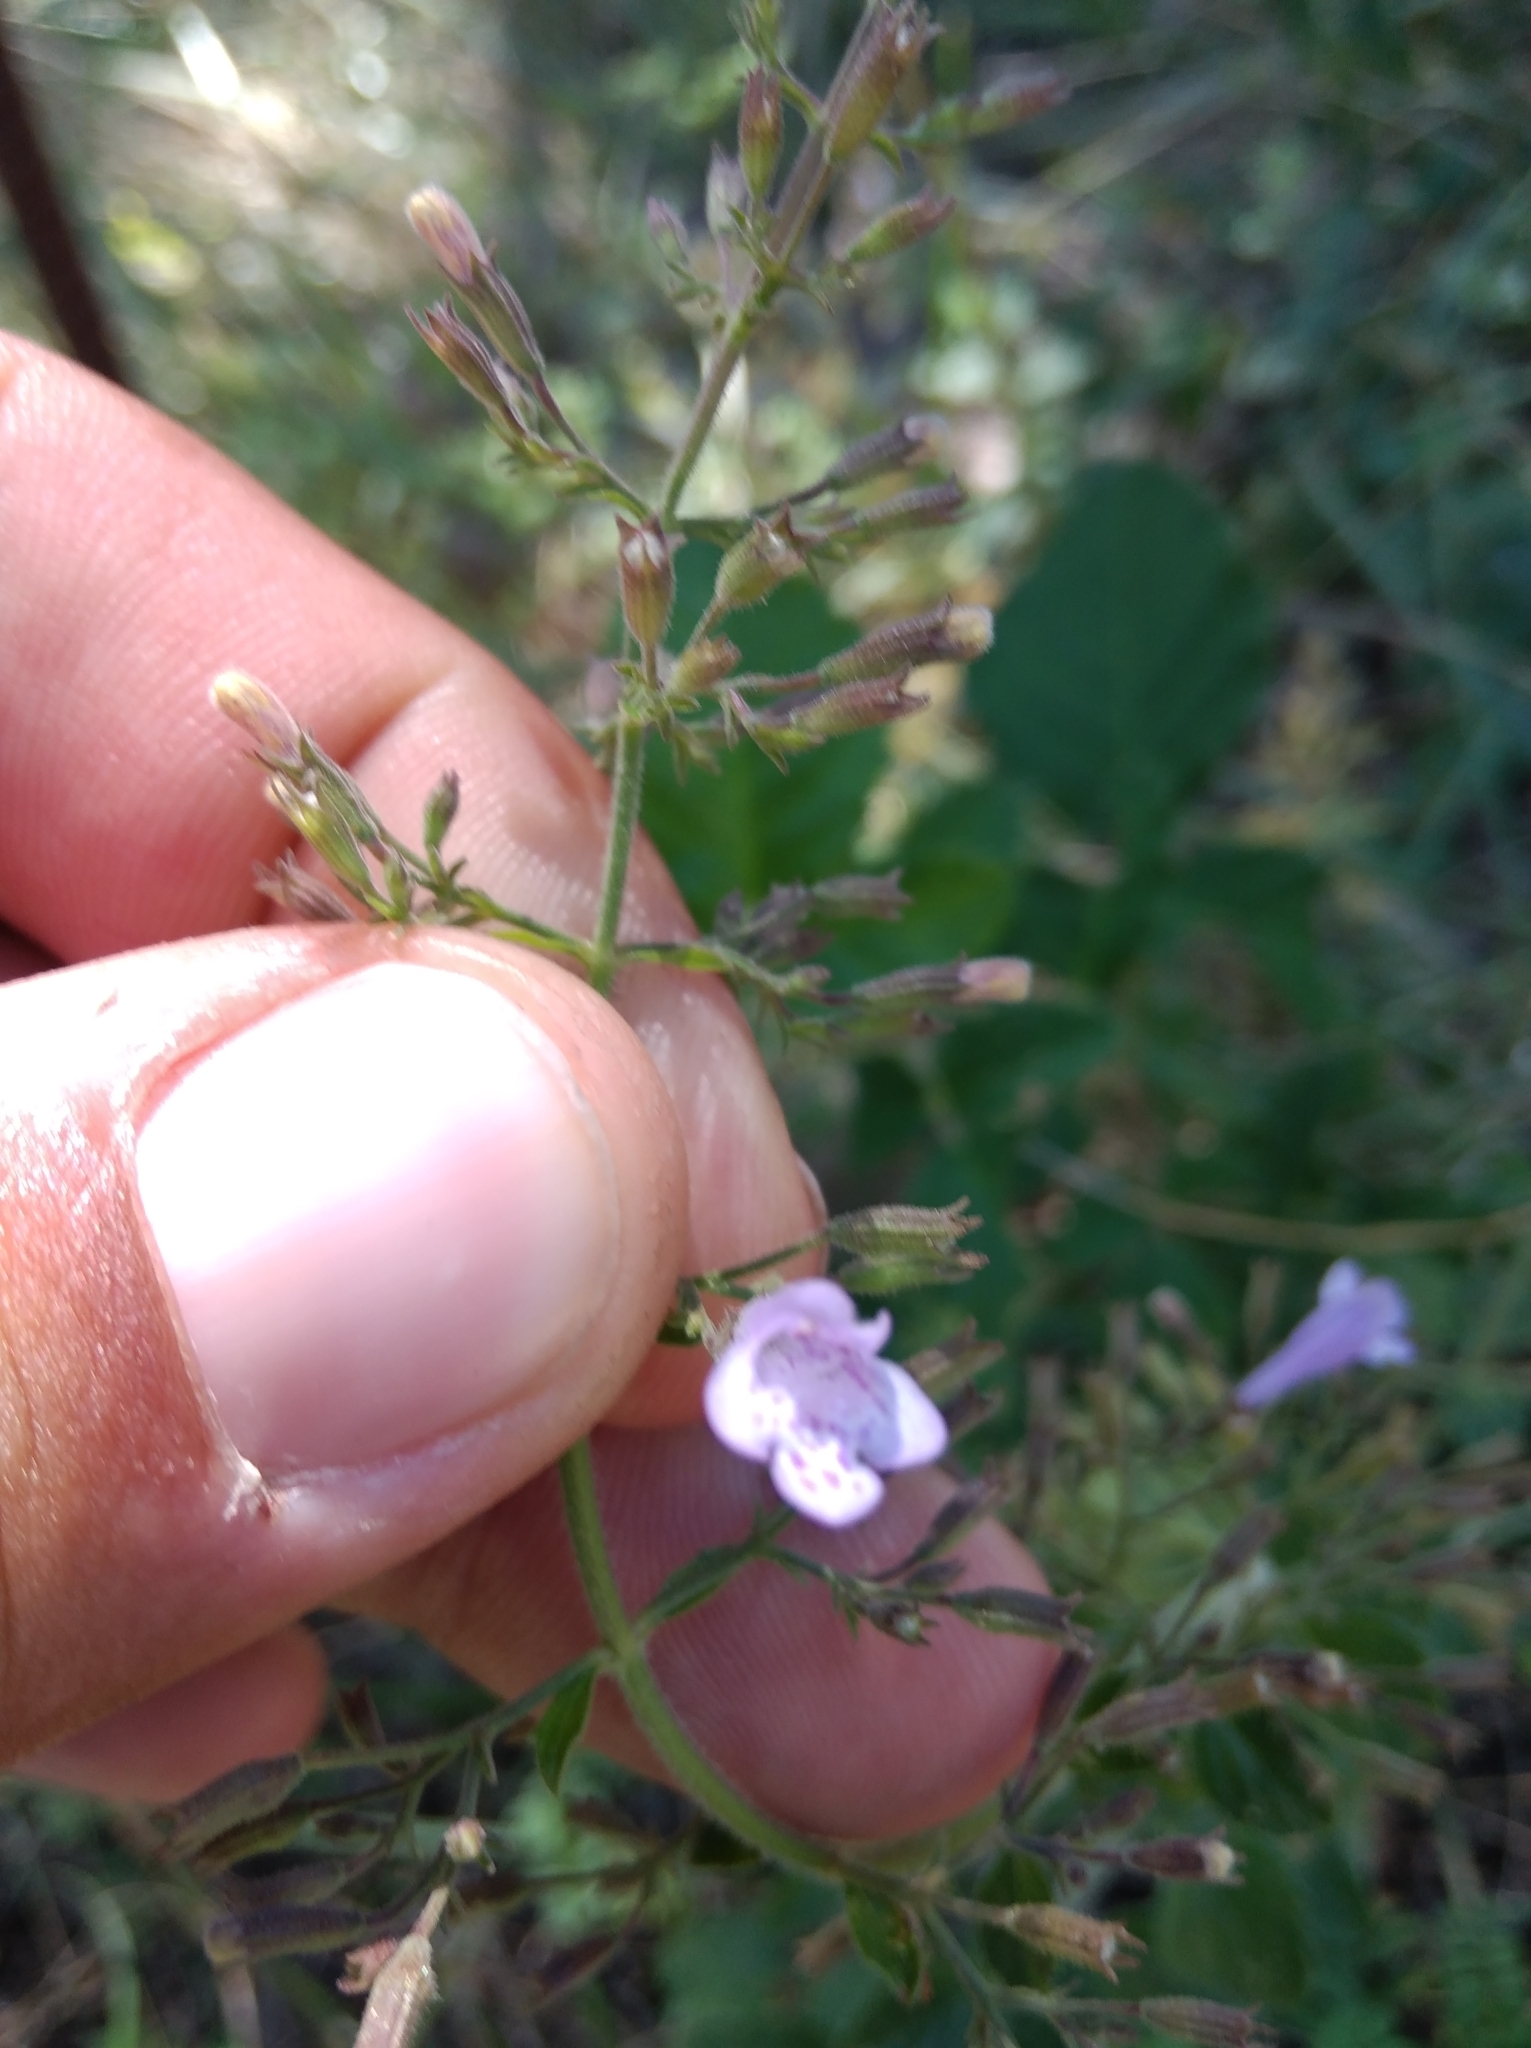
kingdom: Plantae
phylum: Tracheophyta
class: Magnoliopsida
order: Lamiales
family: Lamiaceae
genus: Clinopodium
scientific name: Clinopodium nepeta
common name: Lesser calamint
